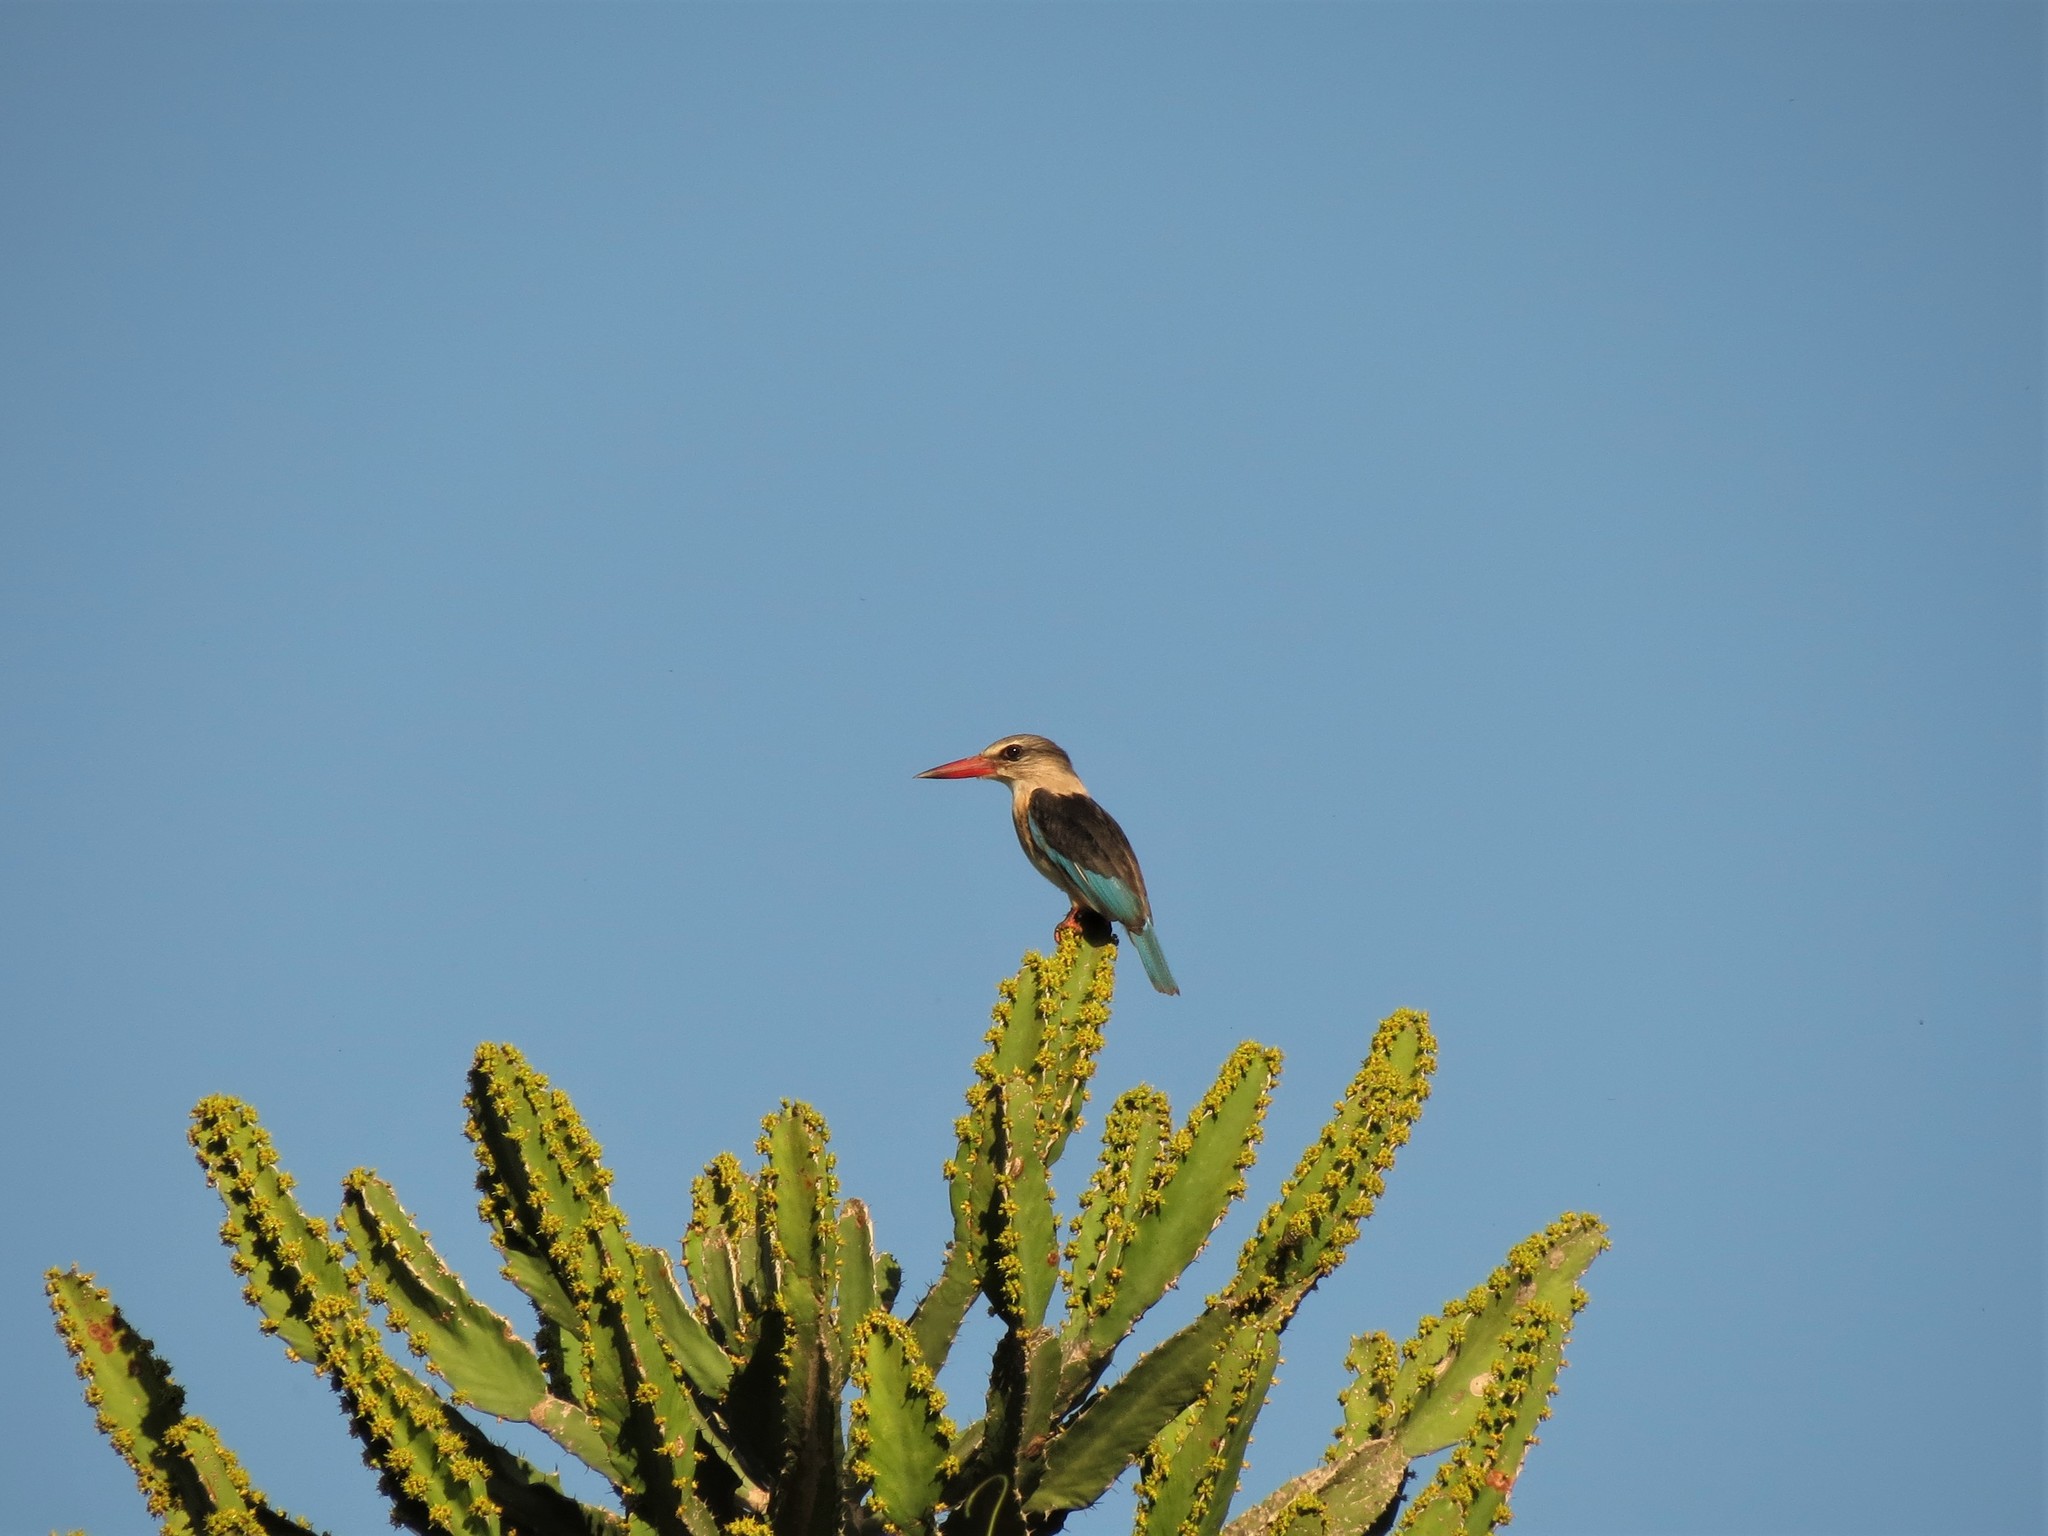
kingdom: Animalia
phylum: Chordata
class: Aves
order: Coraciiformes
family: Alcedinidae
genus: Halcyon
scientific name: Halcyon albiventris
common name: Brown-hooded kingfisher
